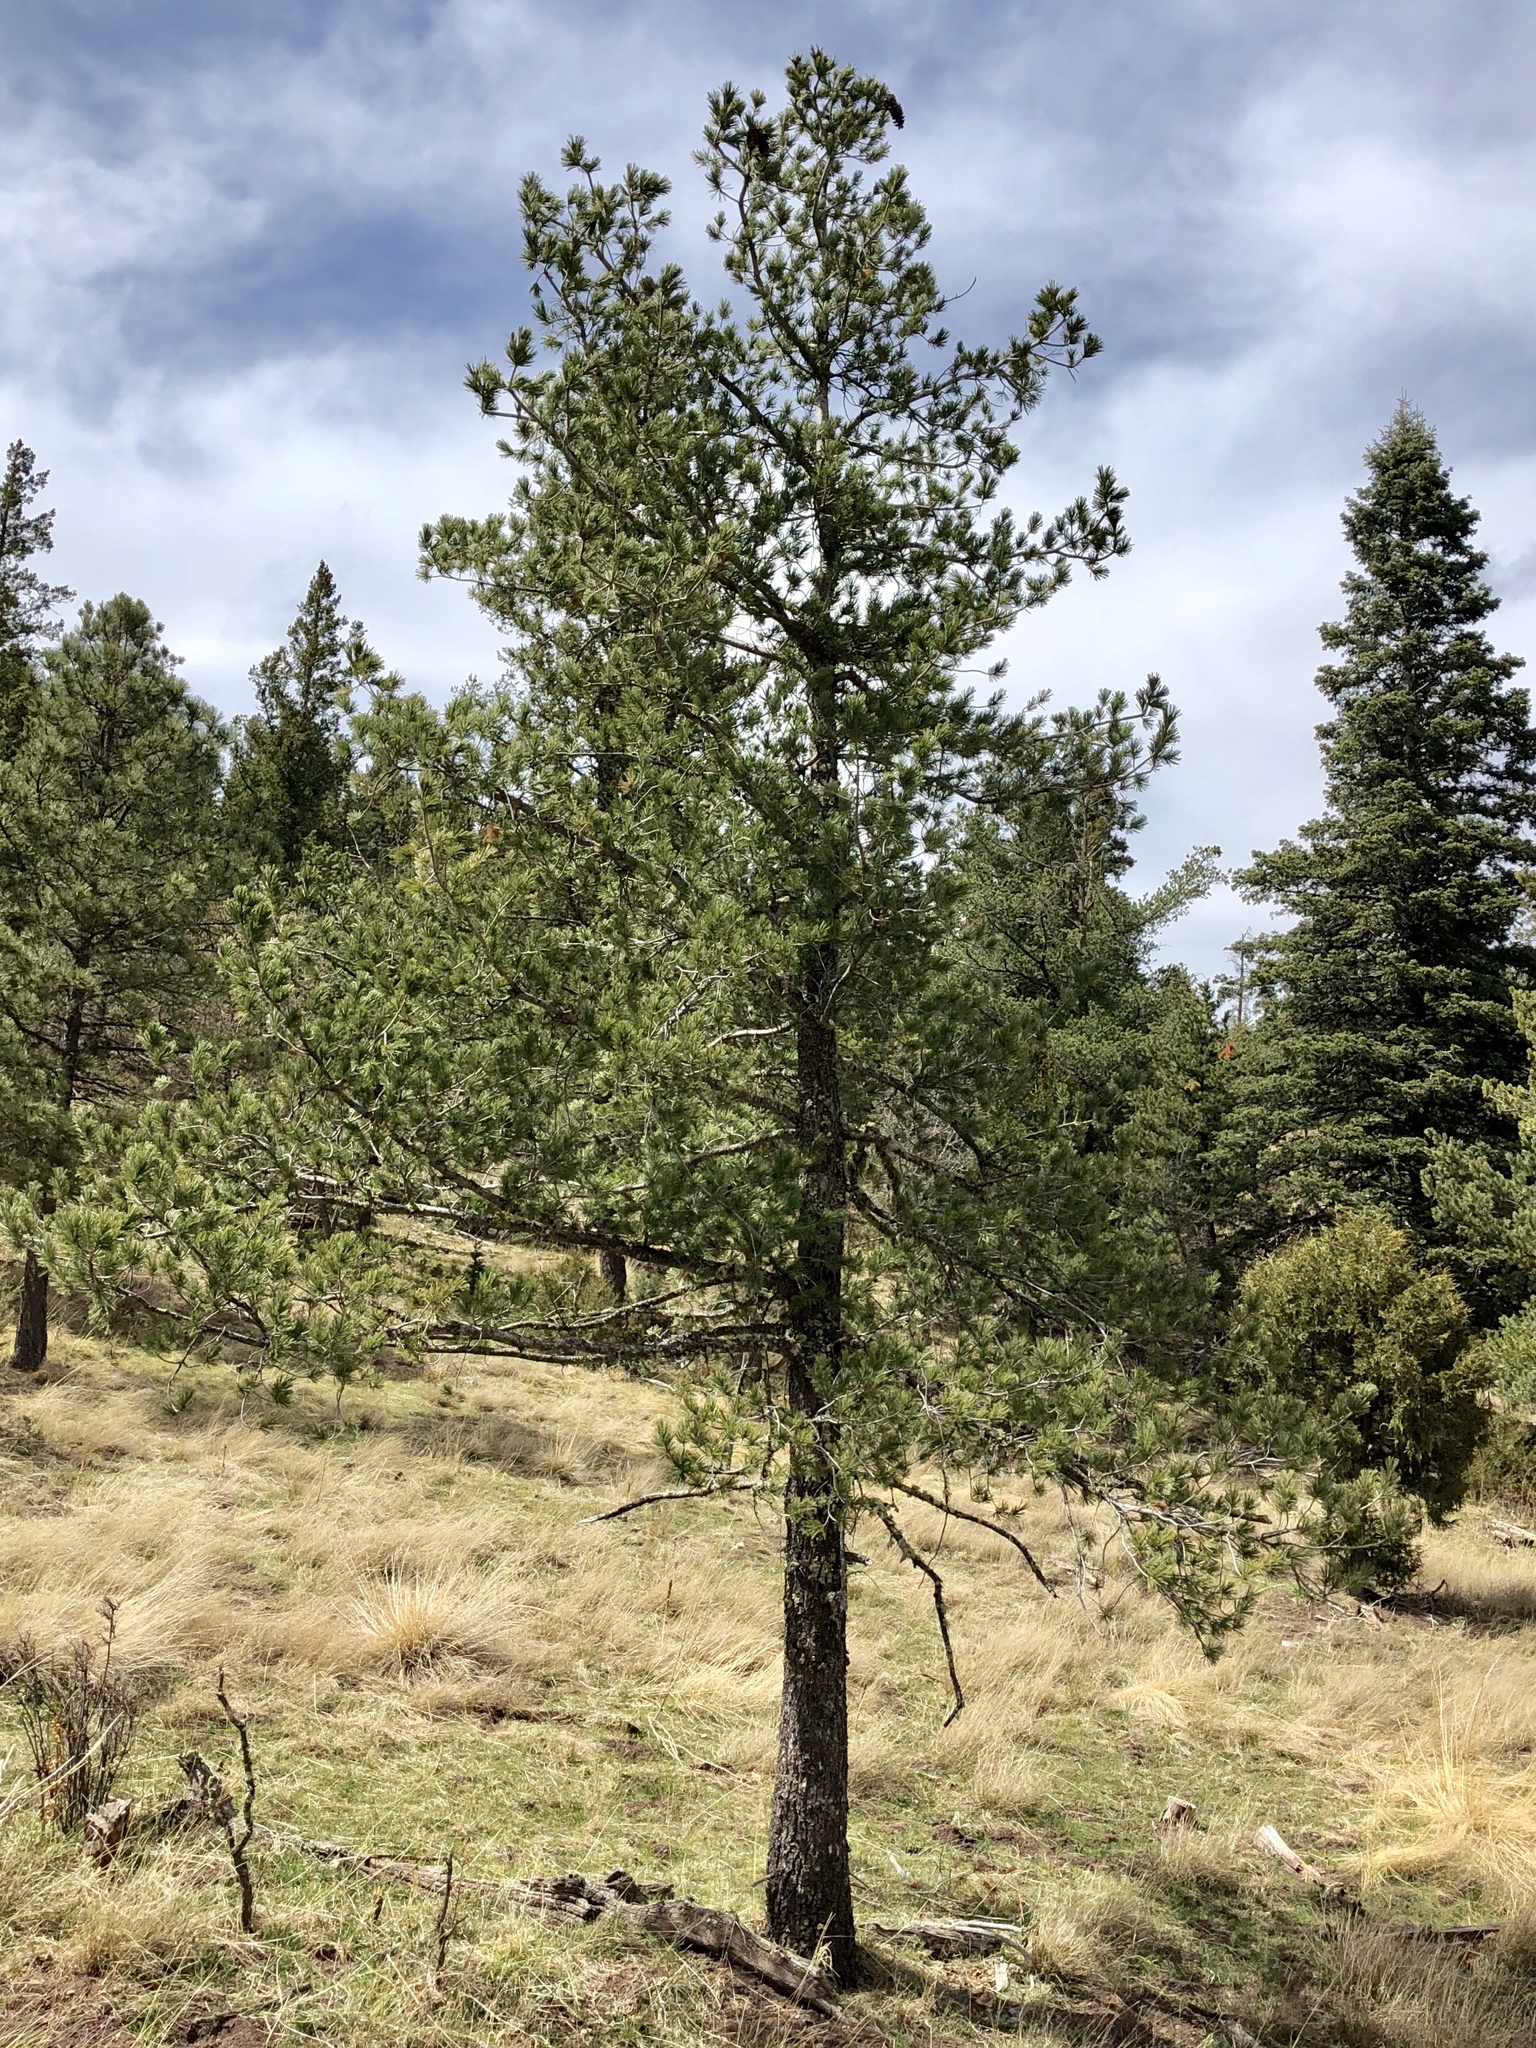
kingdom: Plantae
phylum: Tracheophyta
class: Pinopsida
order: Pinales
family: Pinaceae
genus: Pinus
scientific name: Pinus strobiformis
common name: Southwestern white pine
